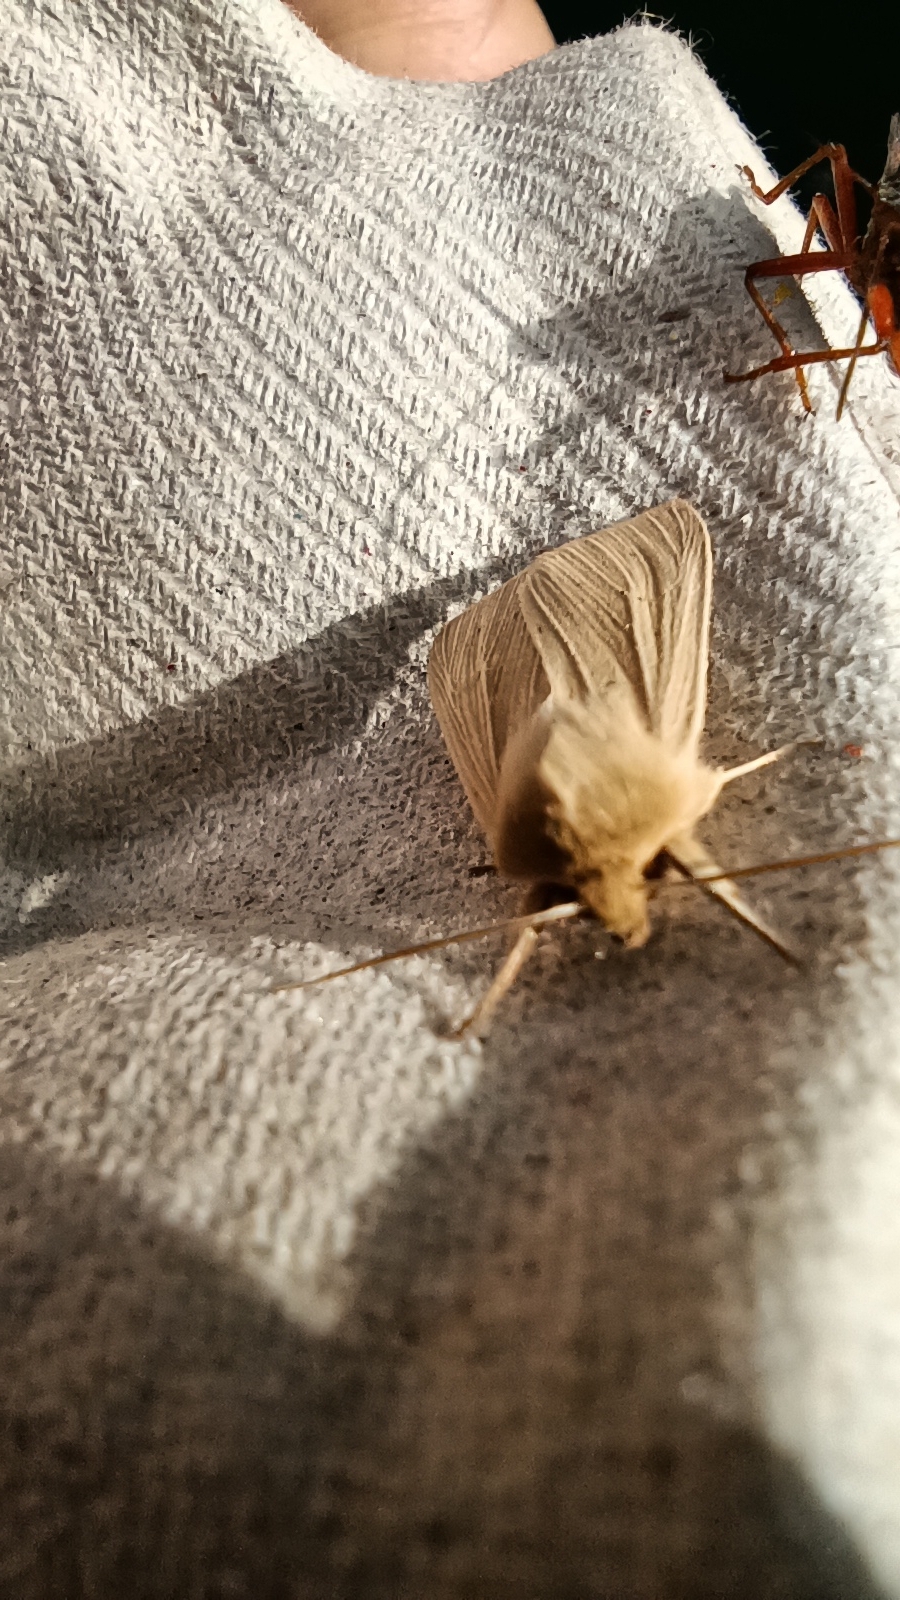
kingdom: Animalia
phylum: Arthropoda
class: Insecta
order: Lepidoptera
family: Noctuidae
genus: Mythimna
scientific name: Mythimna pallens
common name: Common wainscot
